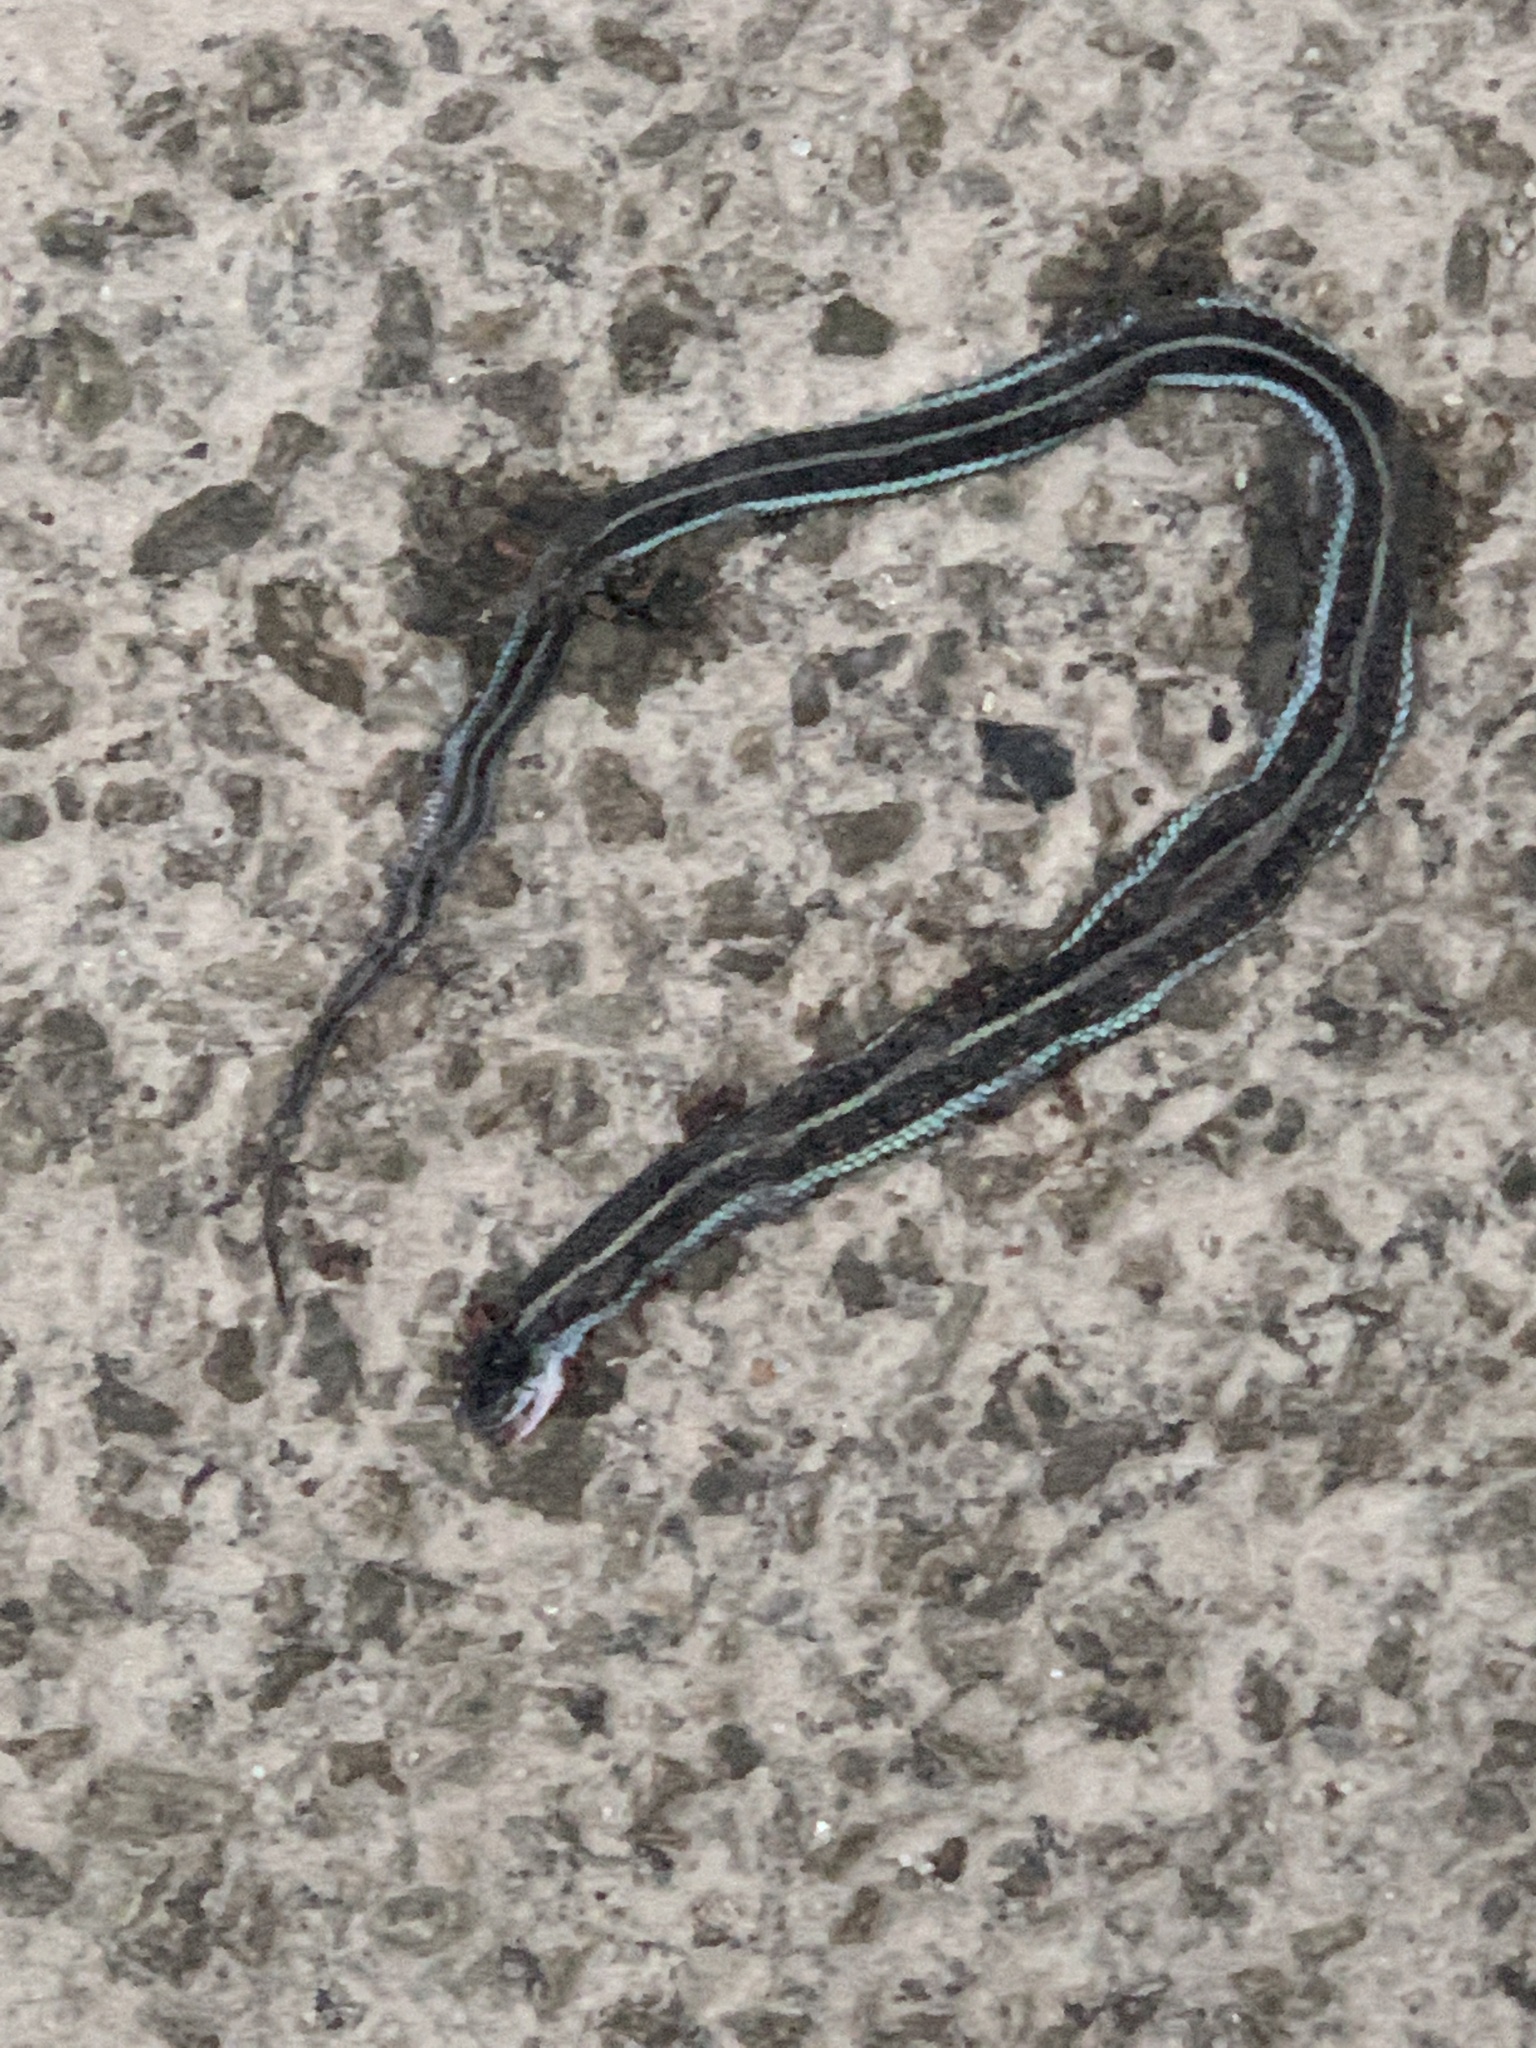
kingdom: Animalia
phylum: Chordata
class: Squamata
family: Colubridae
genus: Thamnophis
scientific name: Thamnophis sirtalis
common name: Common garter snake
